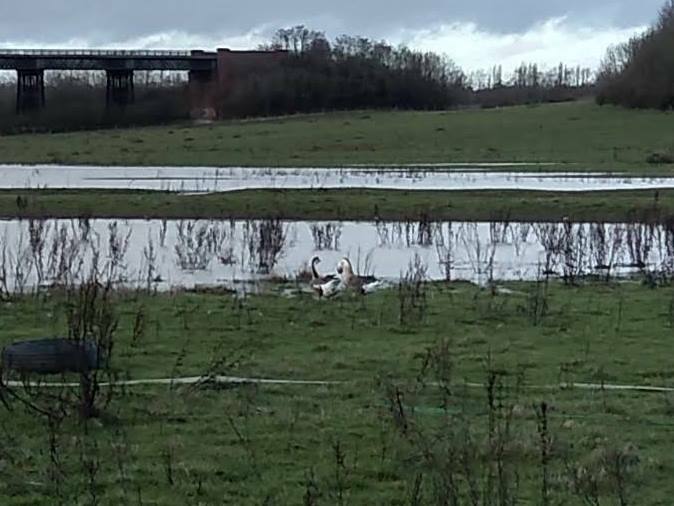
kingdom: Animalia
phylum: Chordata
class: Aves
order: Anseriformes
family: Anatidae
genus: Anser
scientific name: Anser cygnoides
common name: Swan goose
